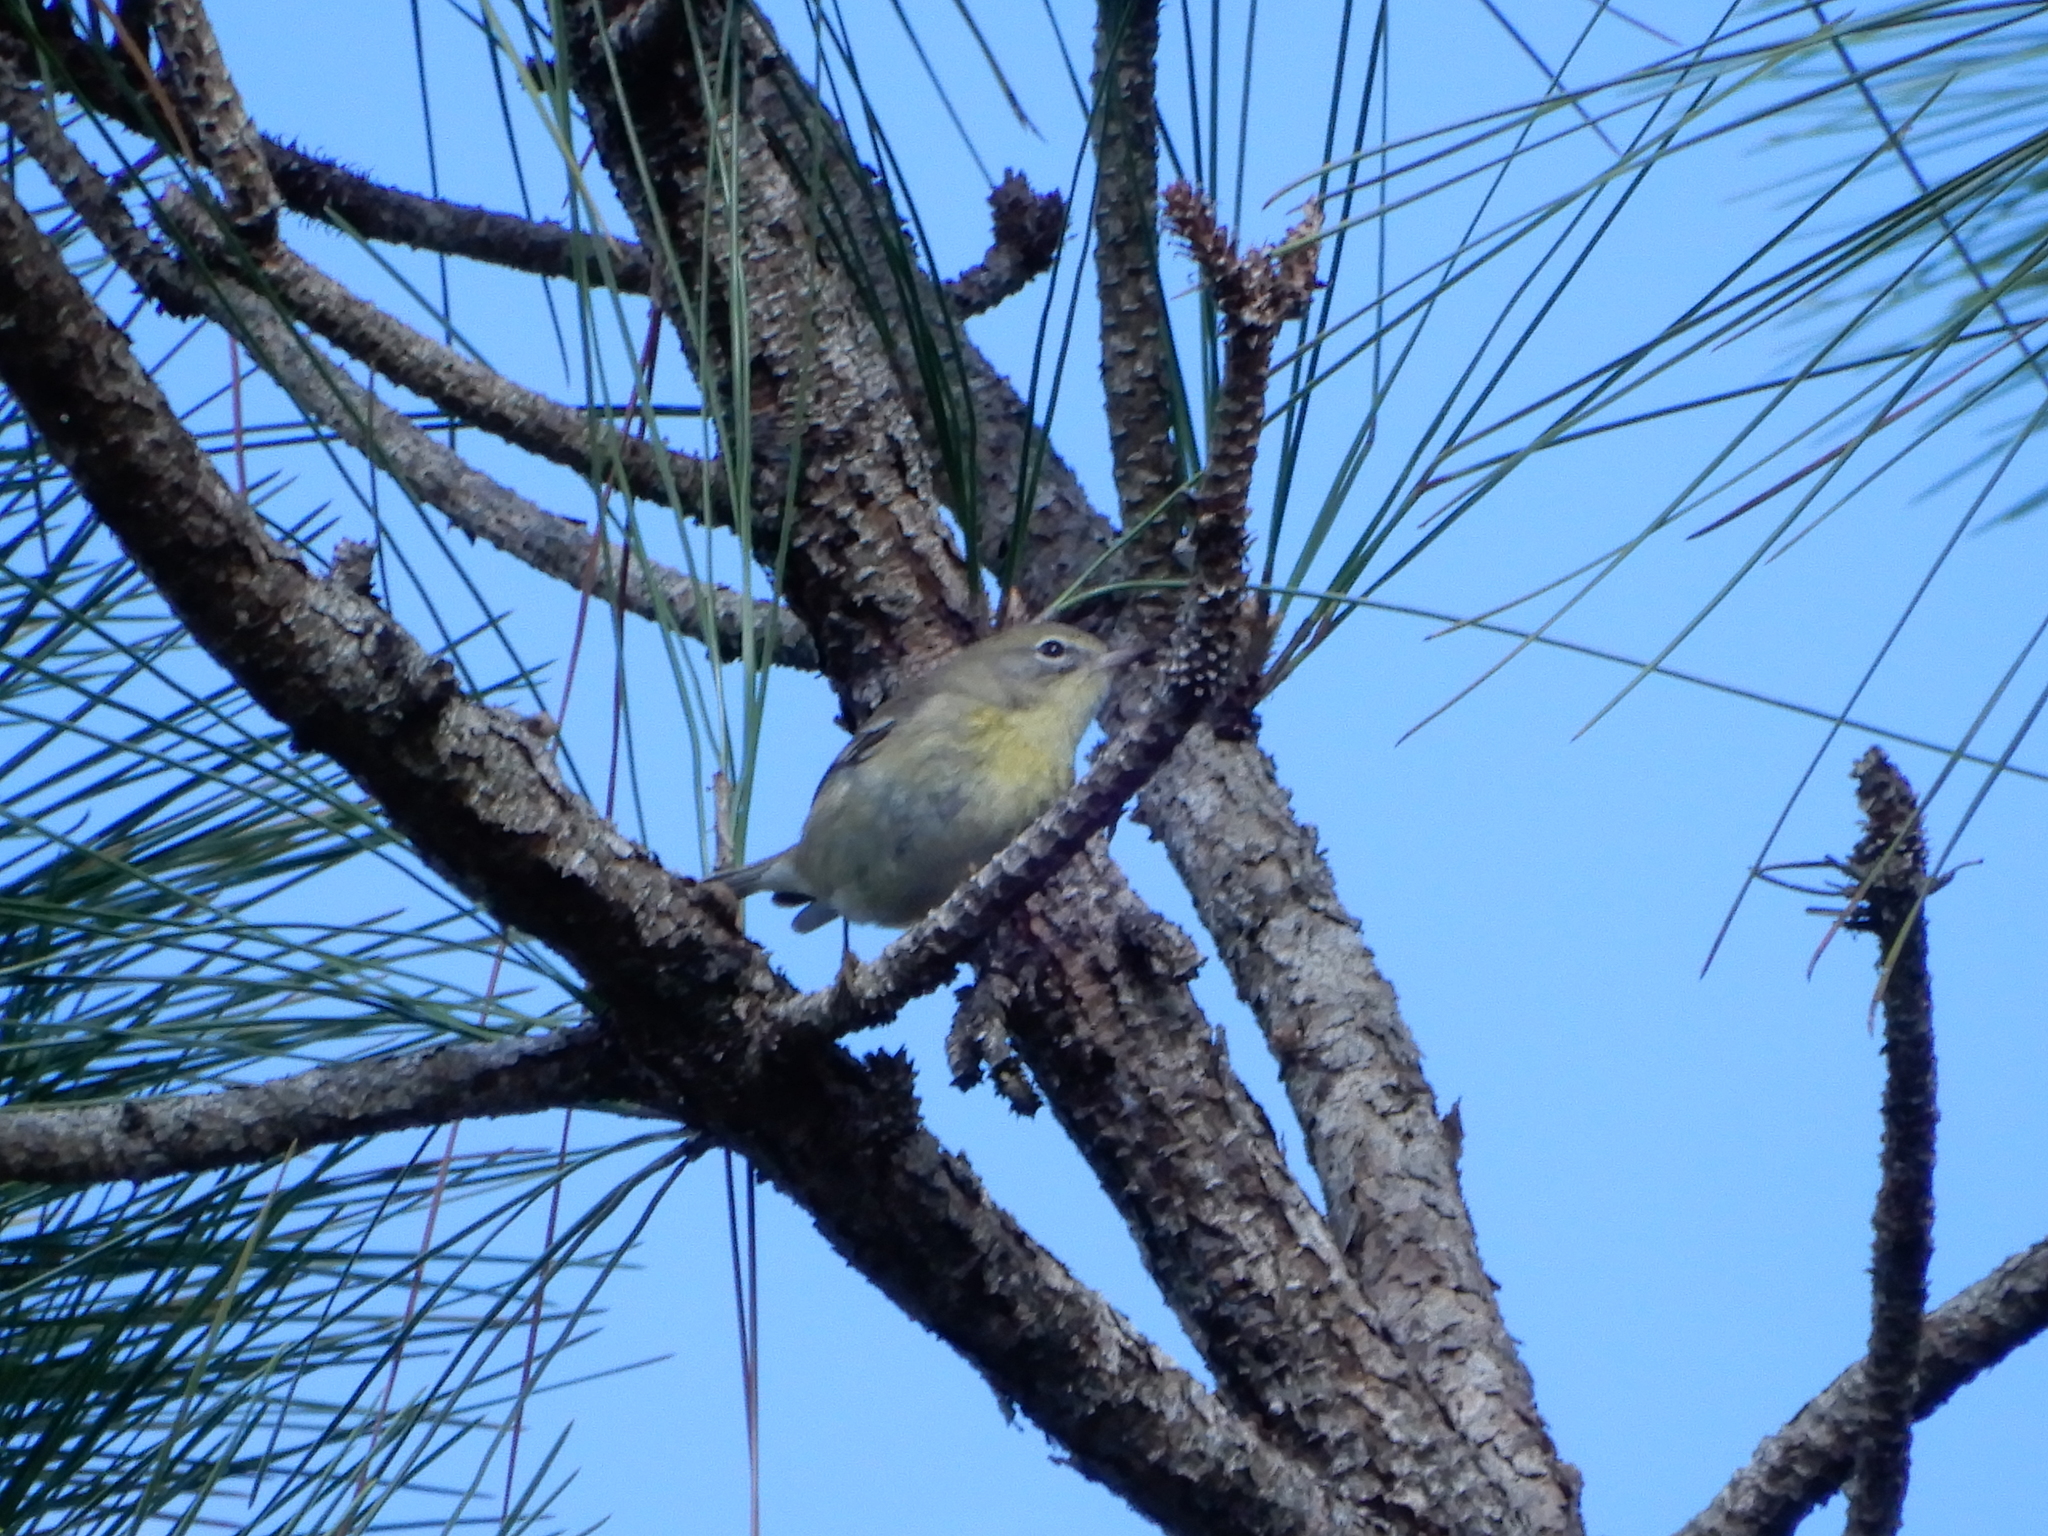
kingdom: Animalia
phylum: Chordata
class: Aves
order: Passeriformes
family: Parulidae
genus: Setophaga
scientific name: Setophaga pinus
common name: Pine warbler
